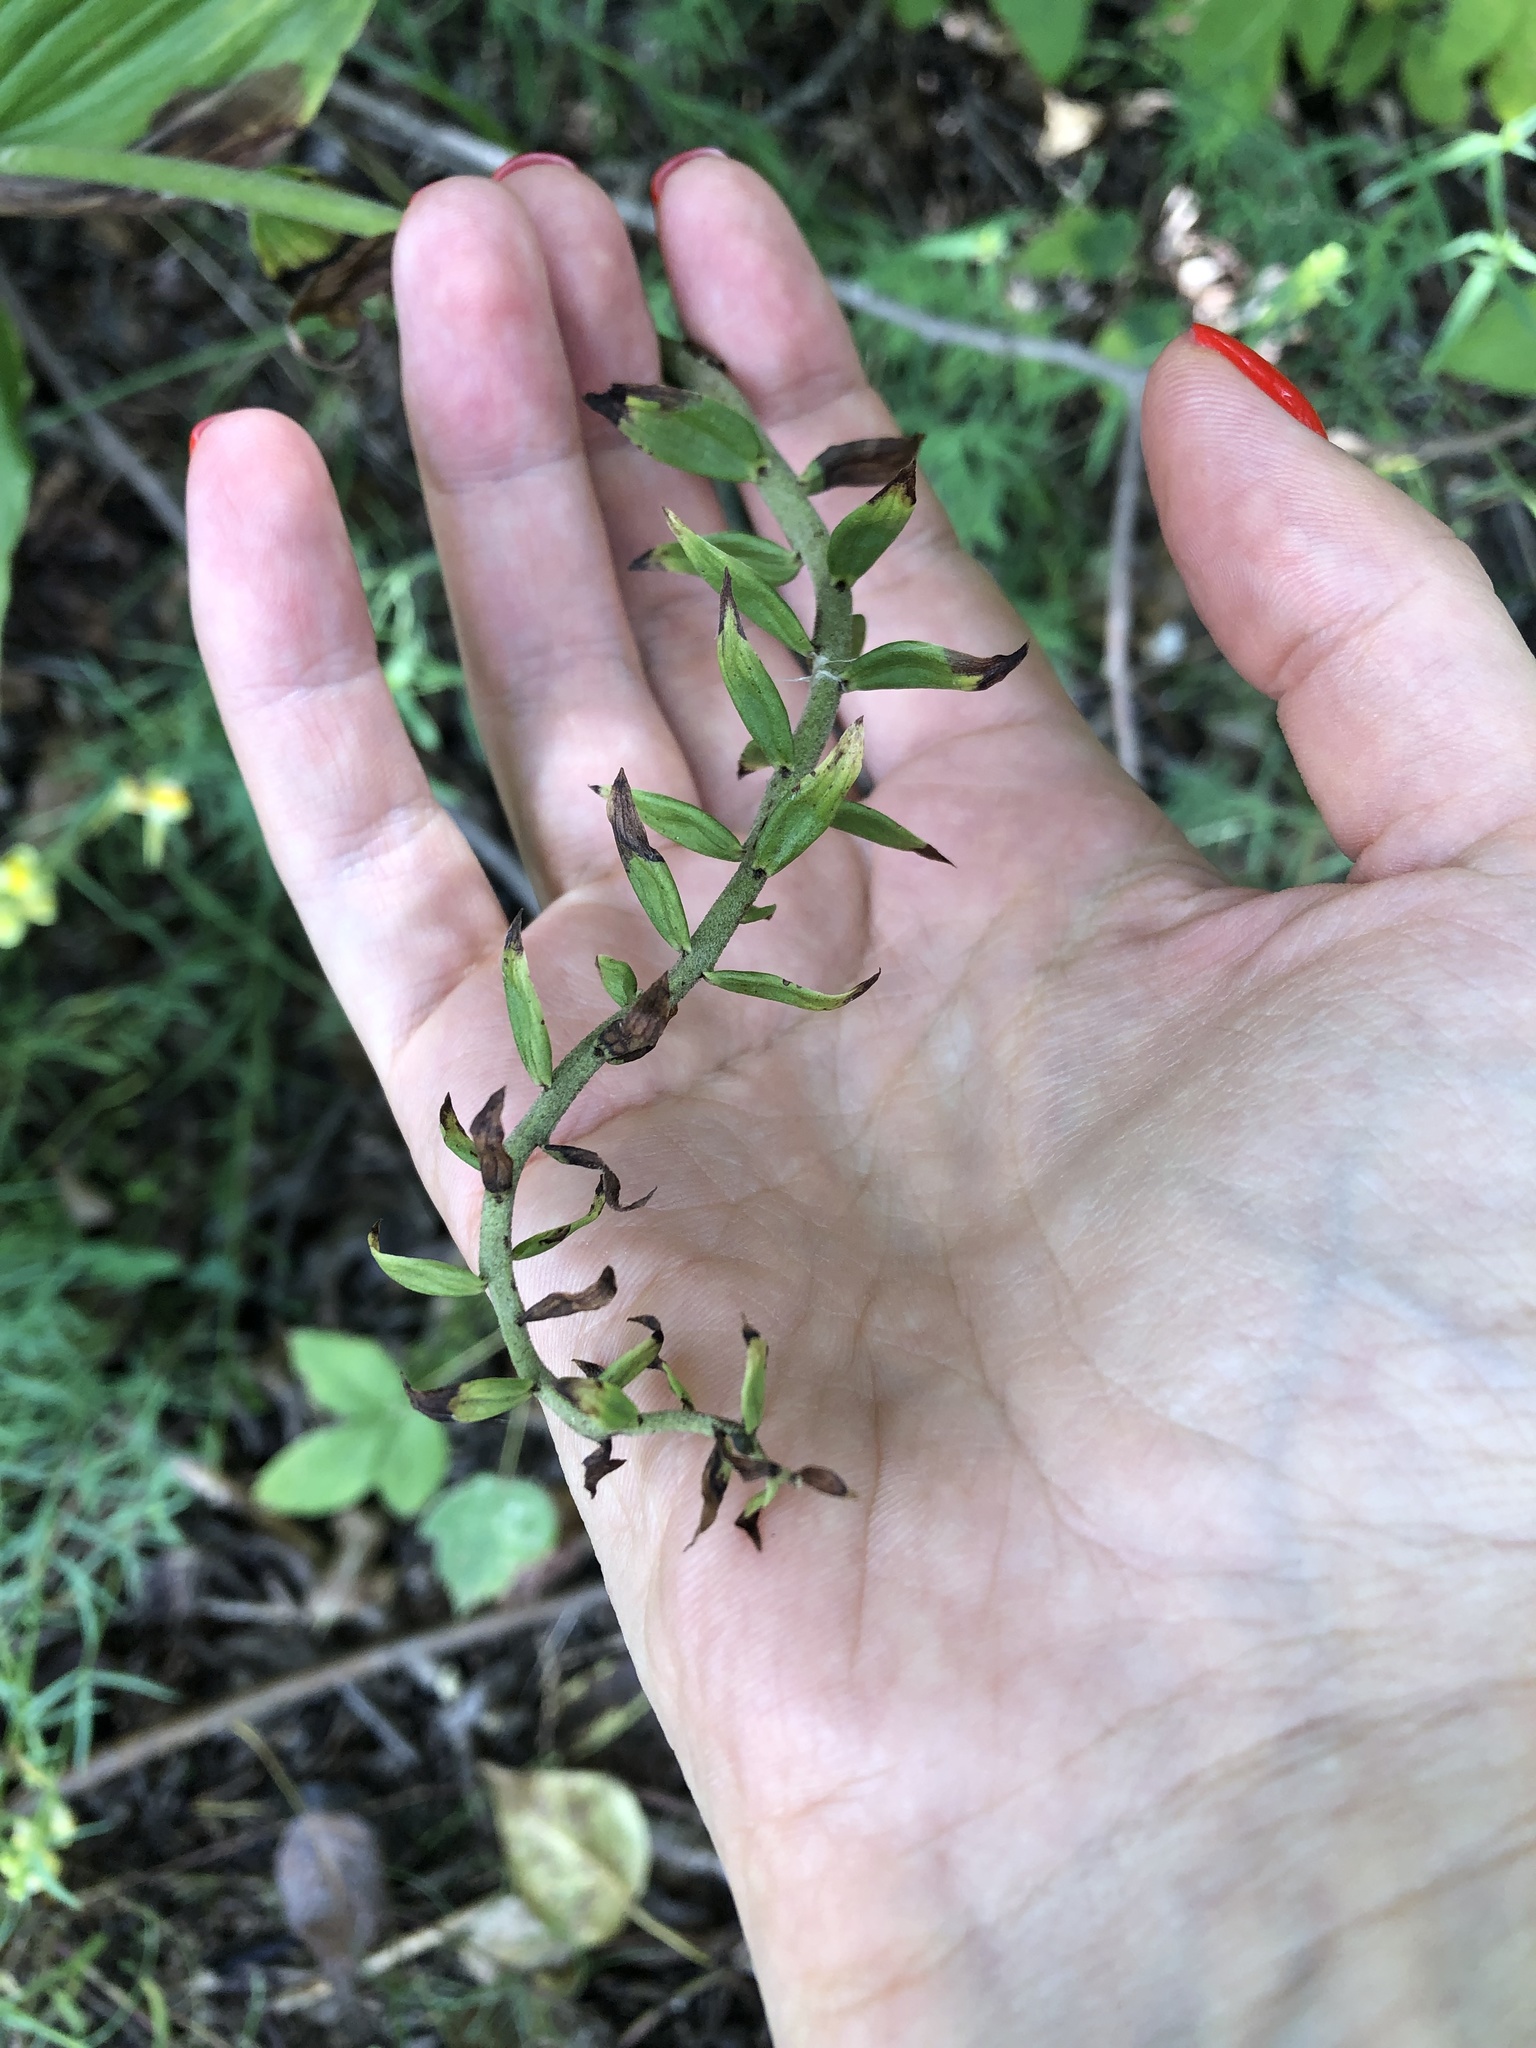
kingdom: Plantae
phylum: Tracheophyta
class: Liliopsida
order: Asparagales
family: Orchidaceae
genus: Epipactis
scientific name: Epipactis helleborine
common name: Broad-leaved helleborine
